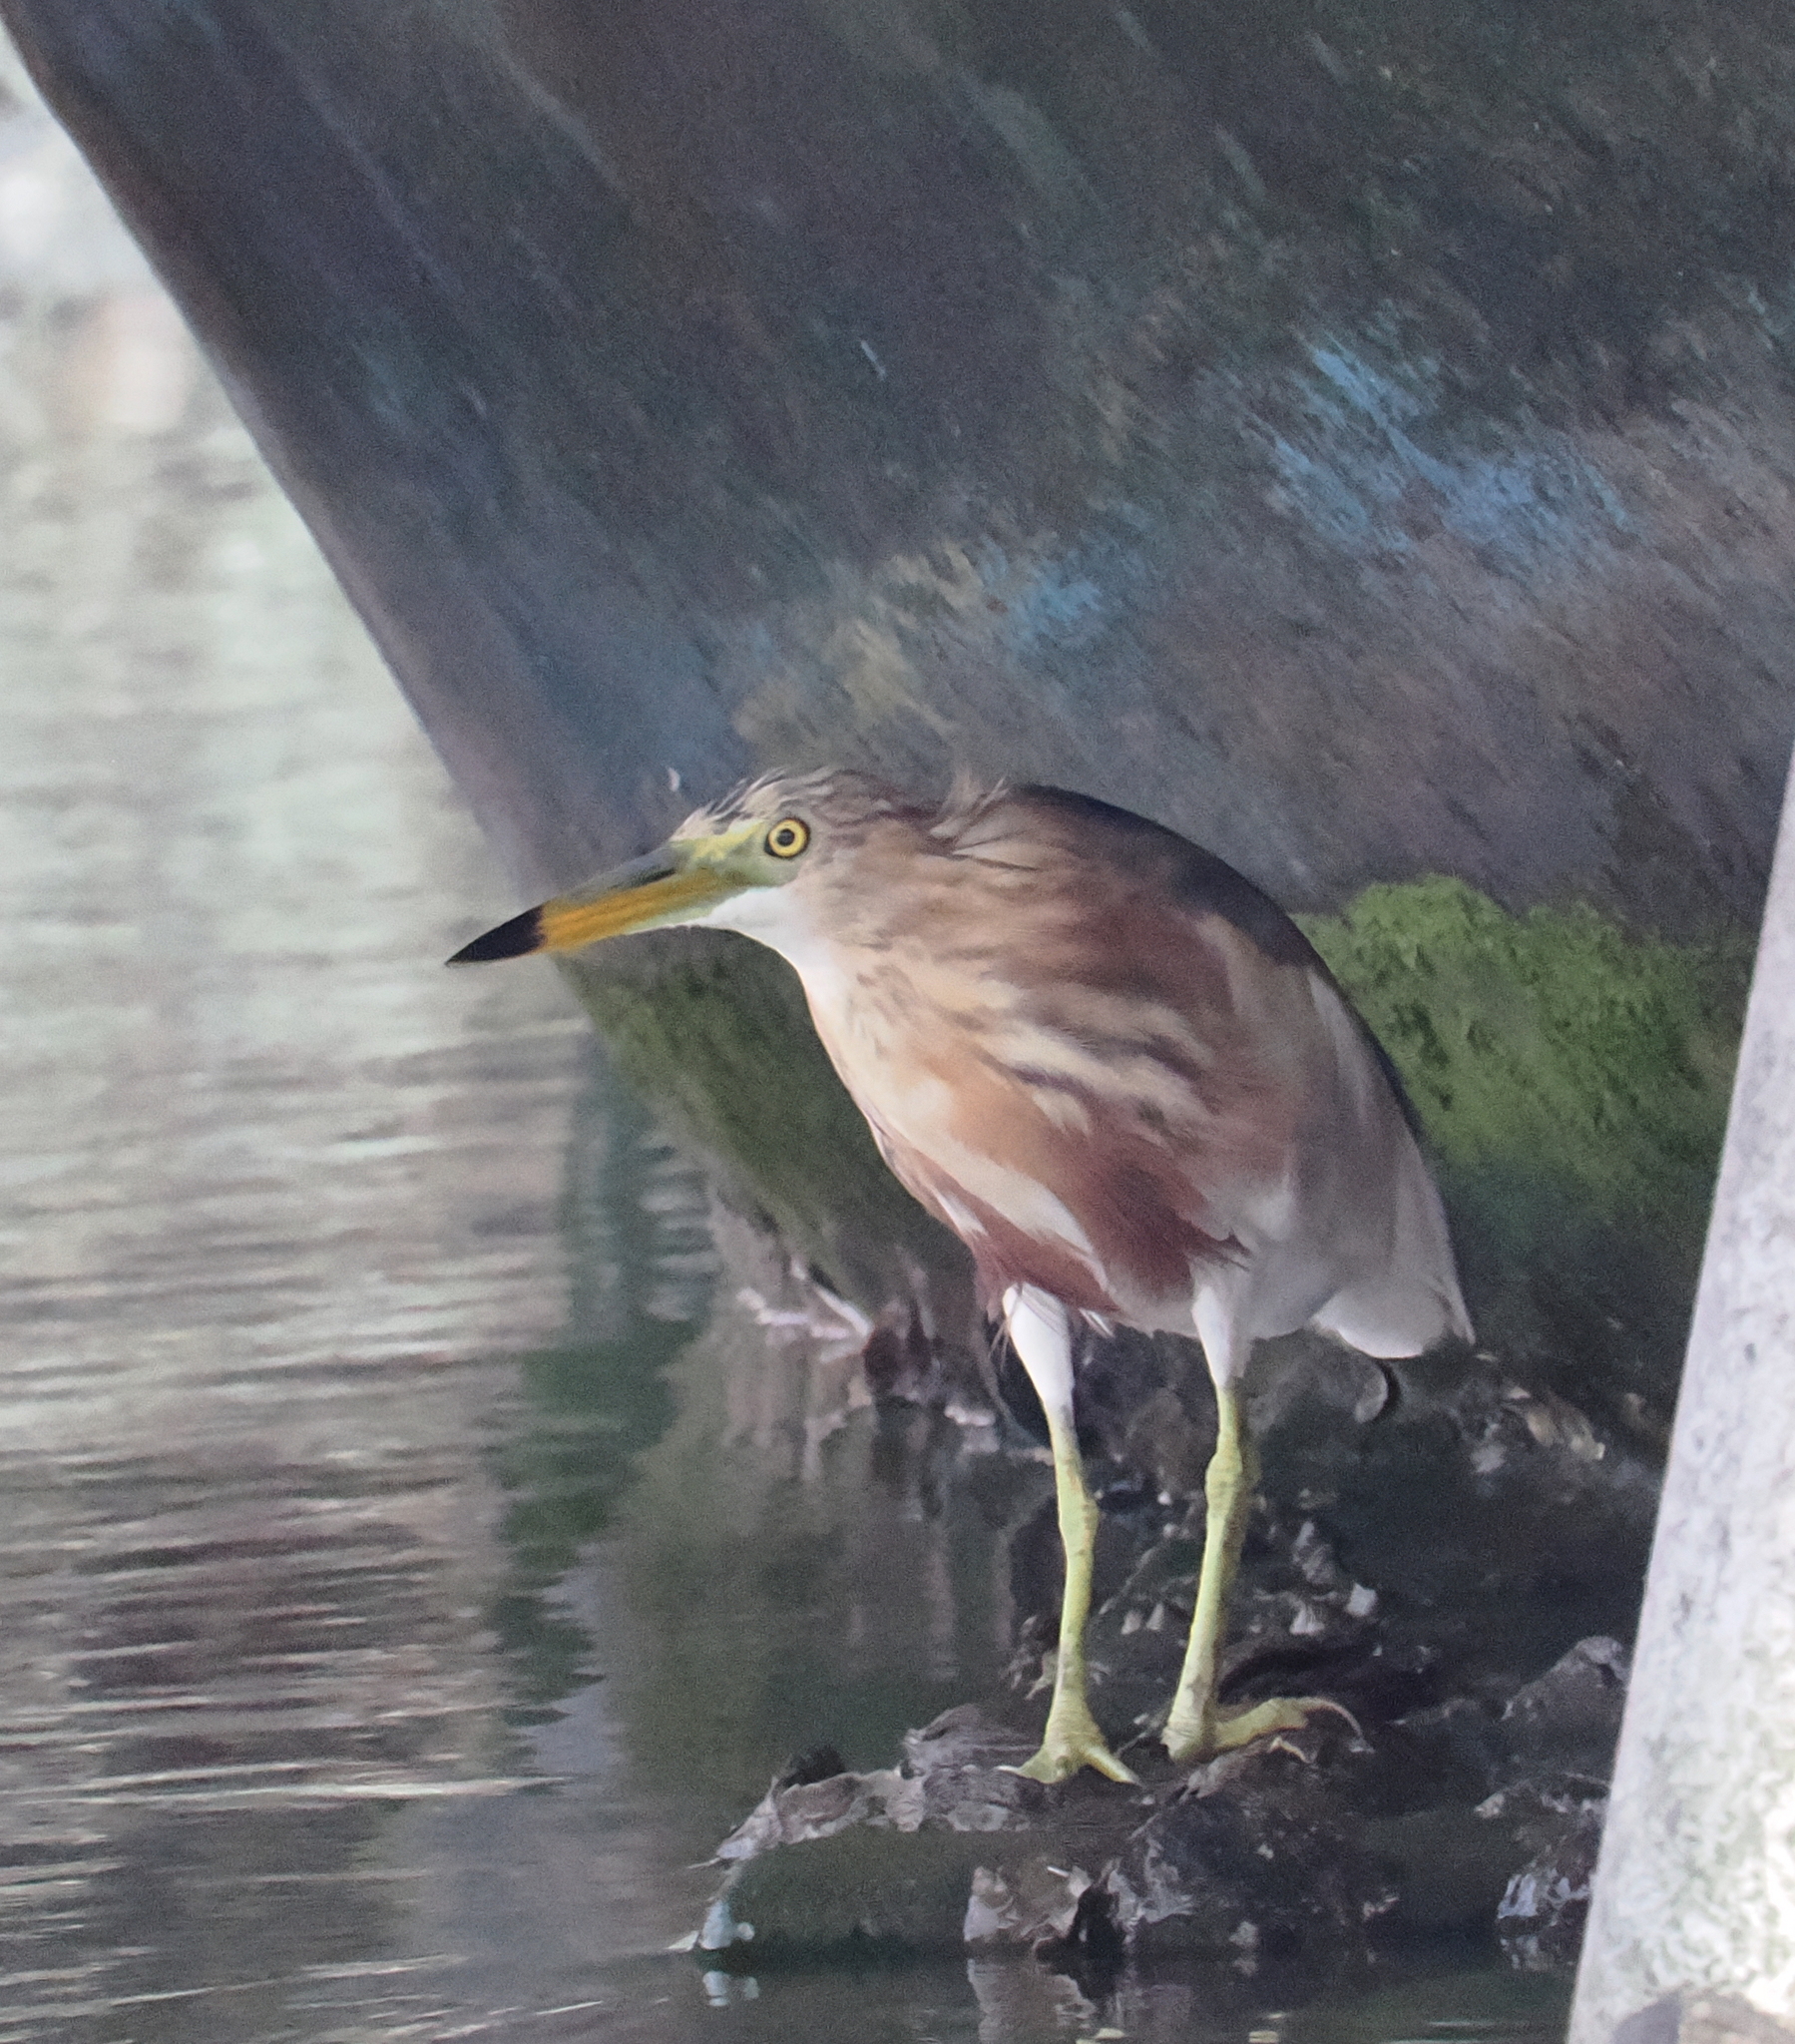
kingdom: Animalia
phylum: Chordata
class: Aves
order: Pelecaniformes
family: Ardeidae
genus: Ardeola
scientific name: Ardeola bacchus
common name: Chinese pond heron
